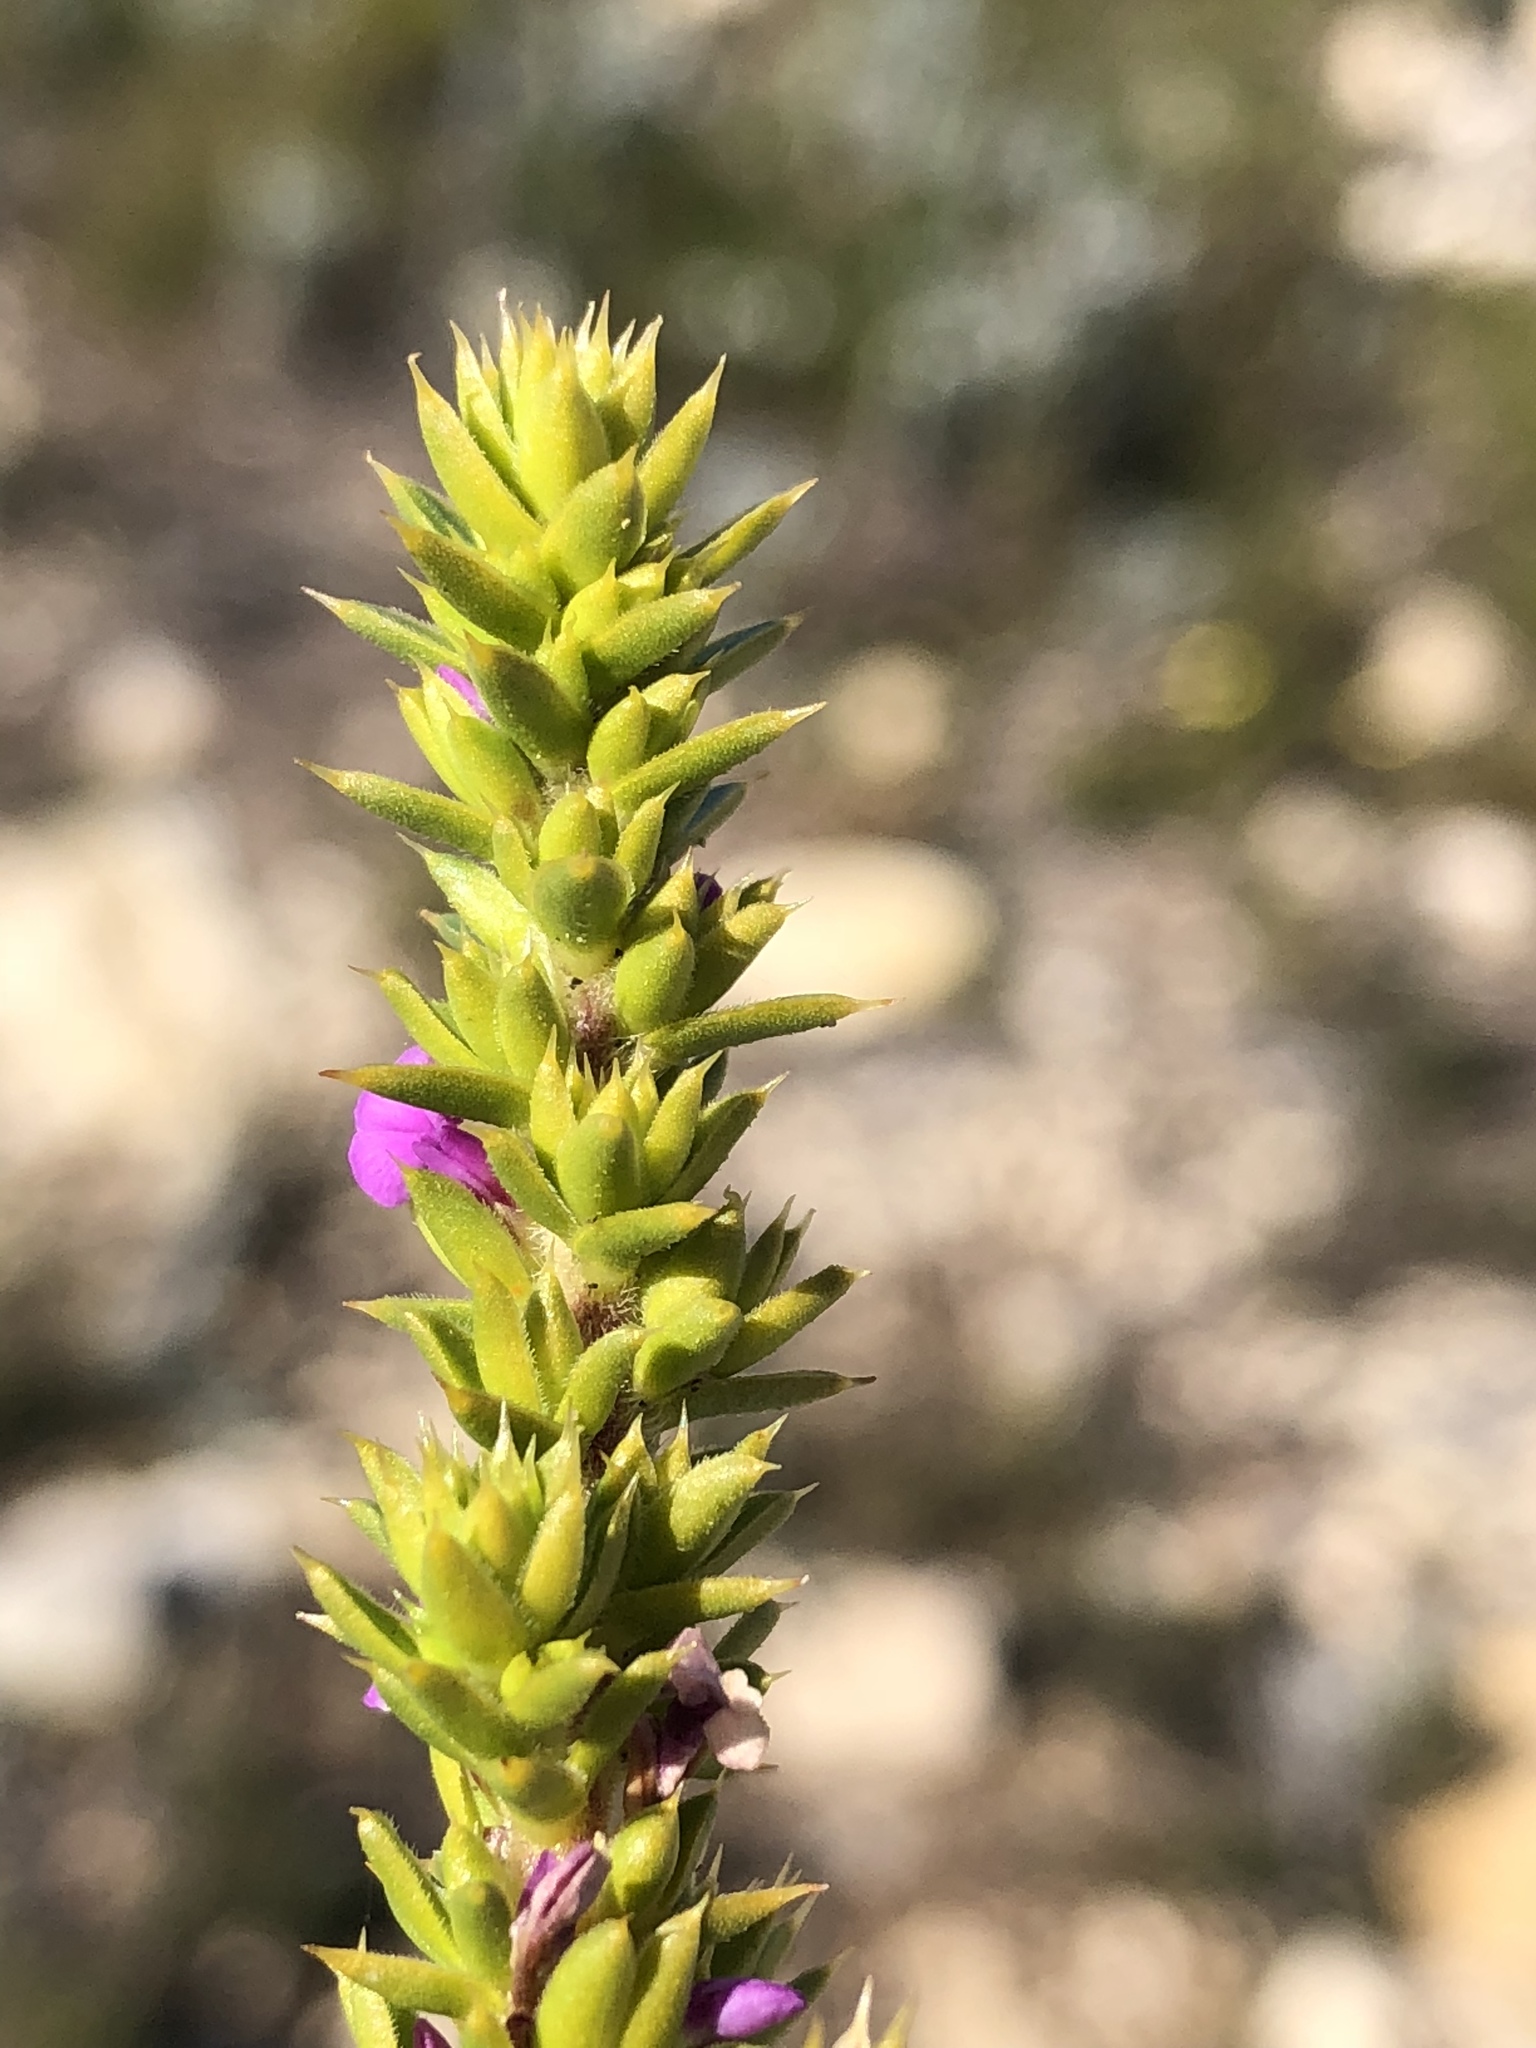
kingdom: Plantae
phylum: Tracheophyta
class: Magnoliopsida
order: Fabales
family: Polygalaceae
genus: Muraltia
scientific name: Muraltia satureioides
